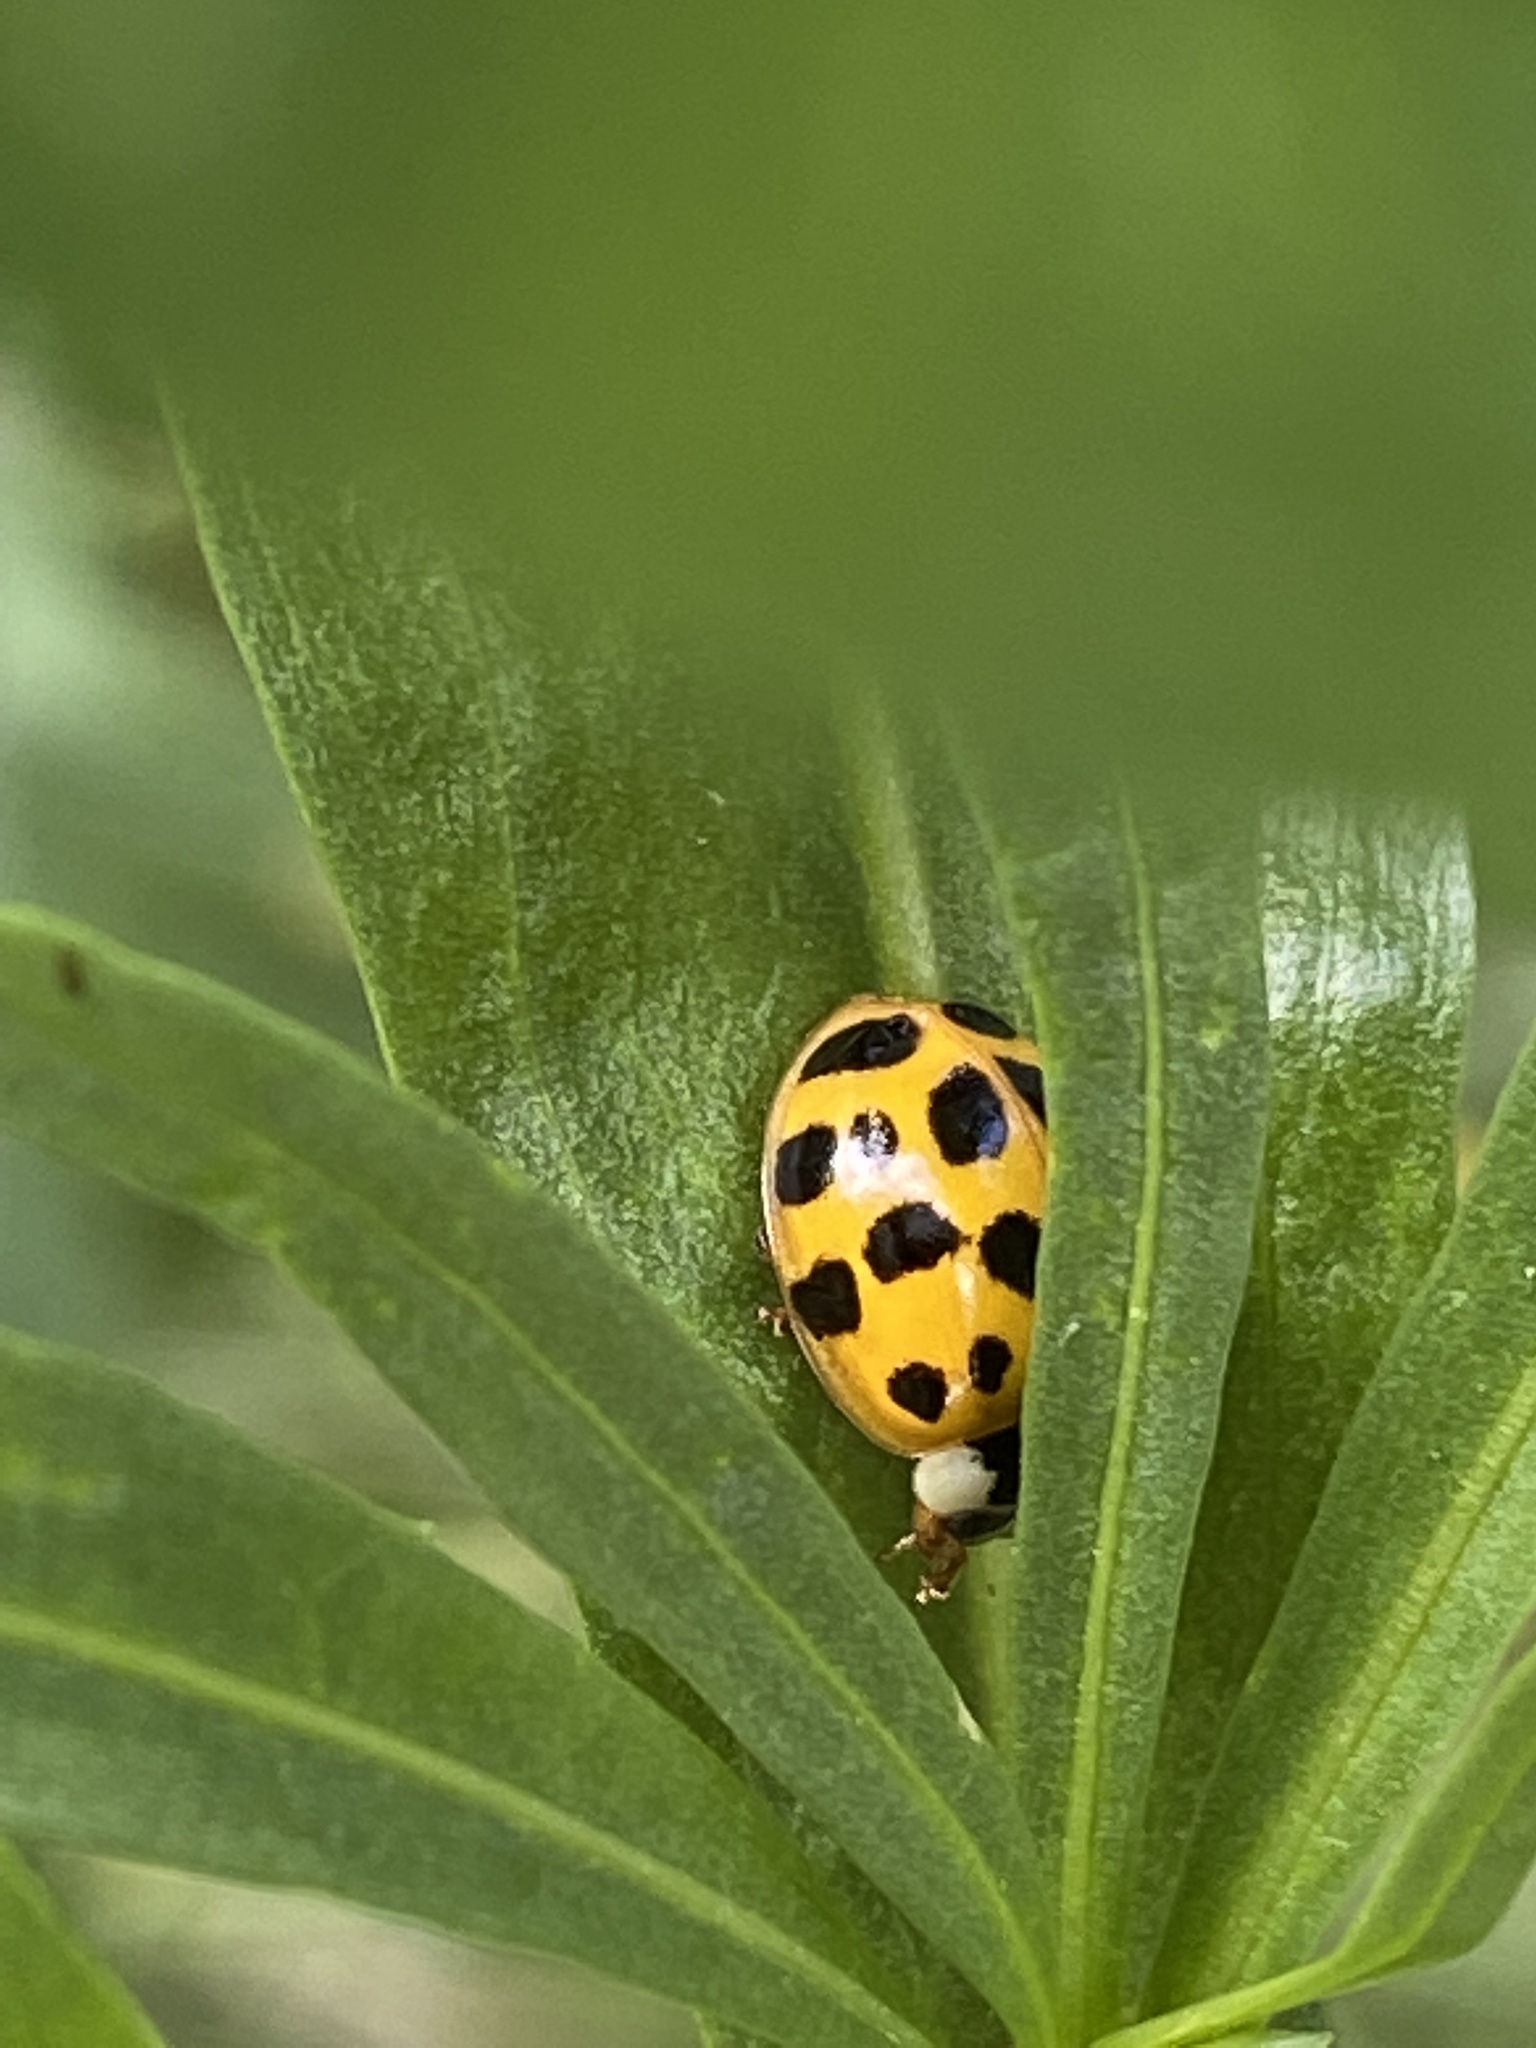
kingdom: Animalia
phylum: Arthropoda
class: Insecta
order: Coleoptera
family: Coccinellidae
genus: Harmonia
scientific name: Harmonia axyridis
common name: Harlequin ladybird
